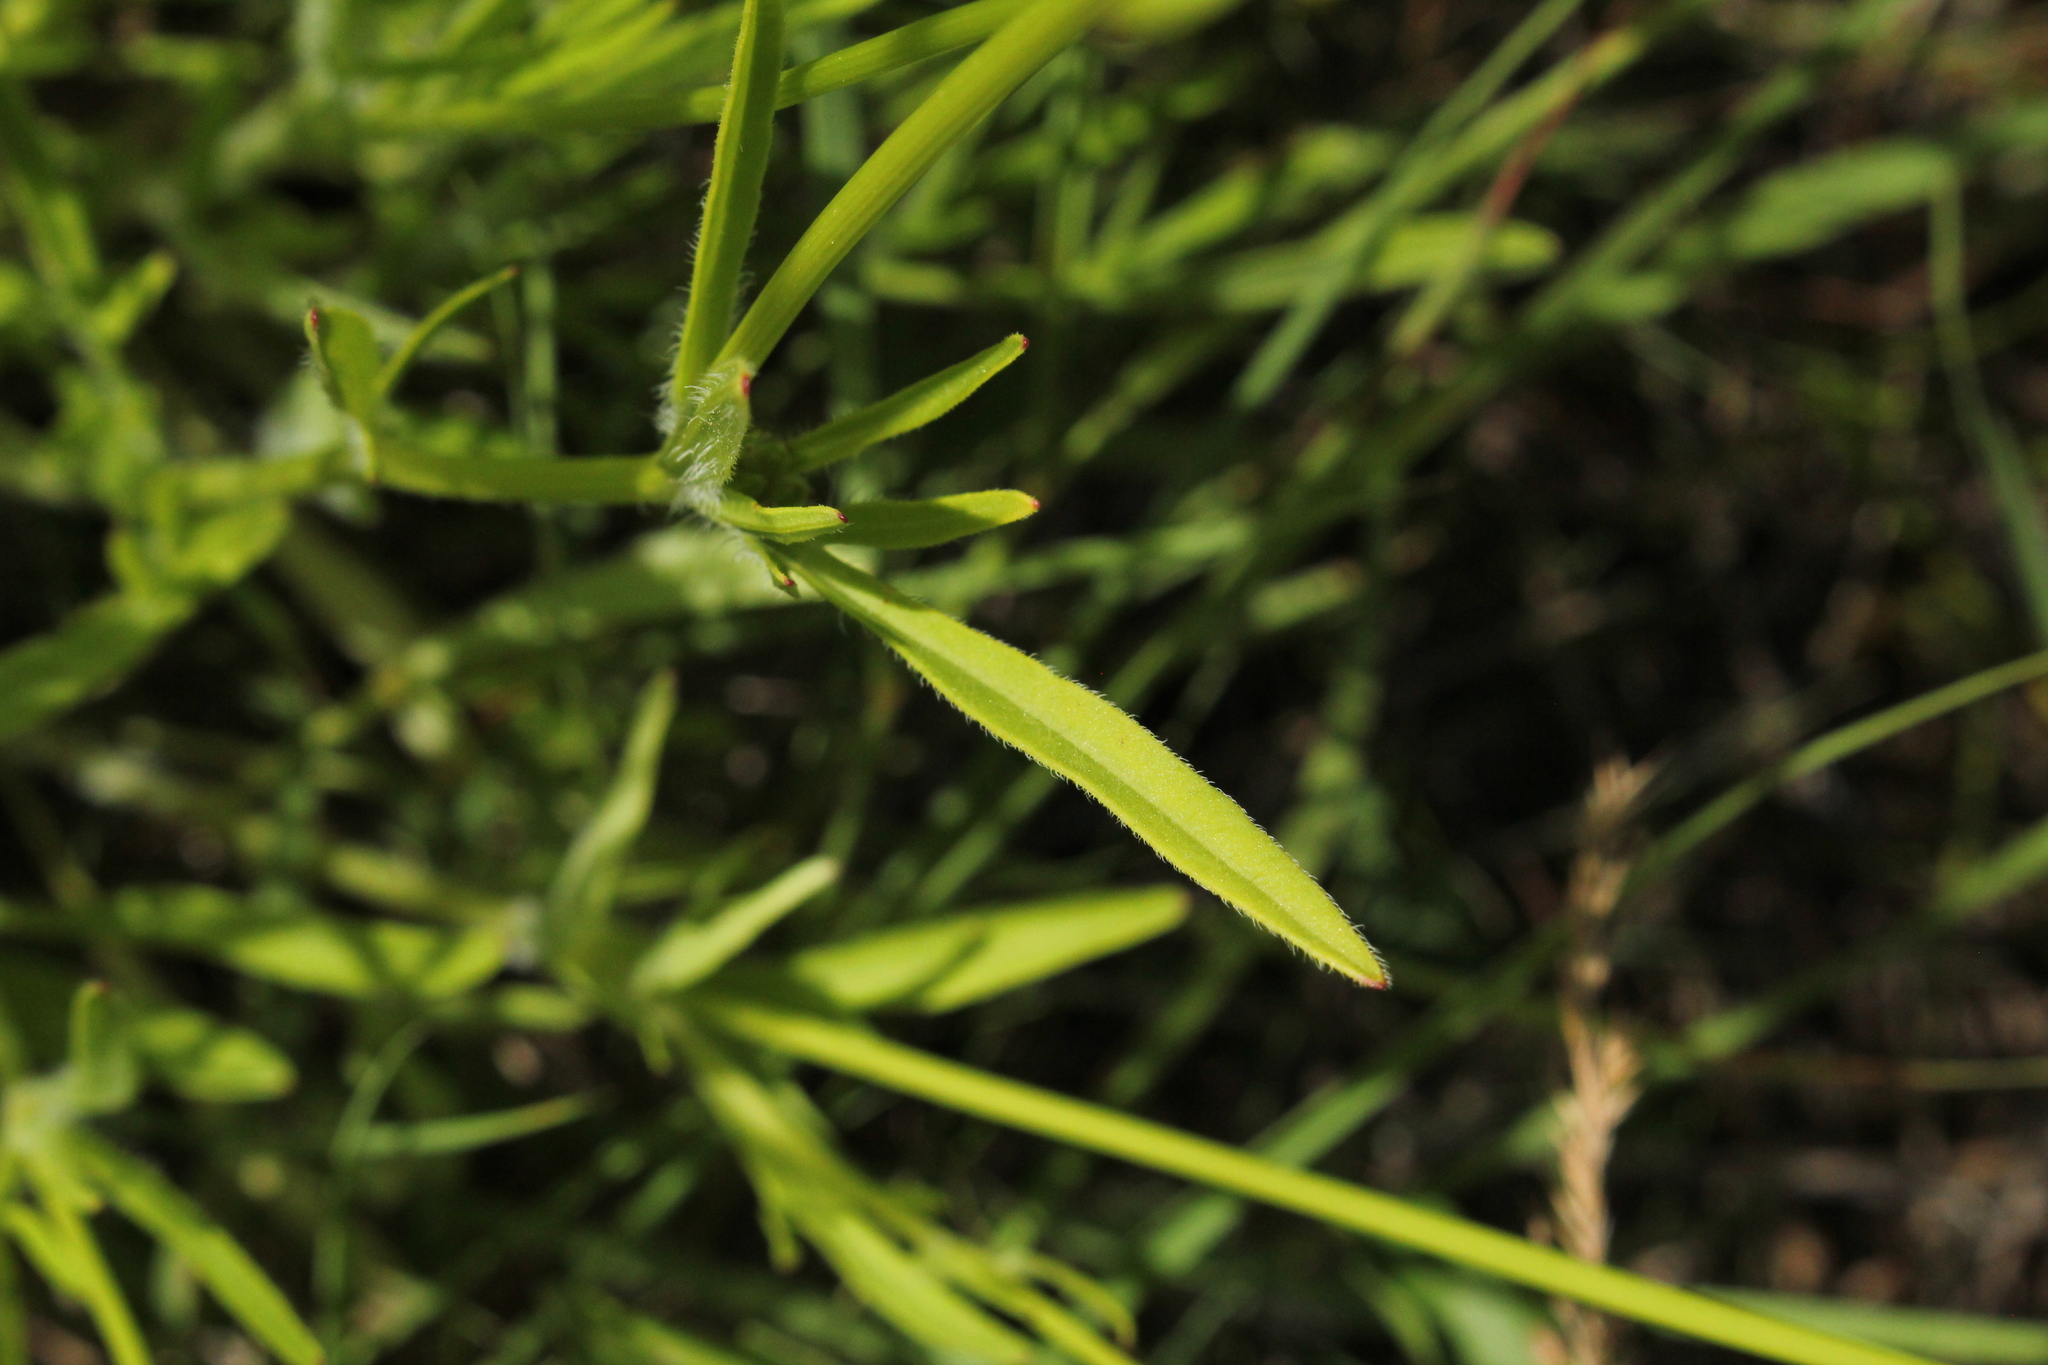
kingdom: Plantae
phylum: Tracheophyta
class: Magnoliopsida
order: Asterales
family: Asteraceae
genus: Coreopsis
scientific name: Coreopsis lanceolata
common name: Garden coreopsis
